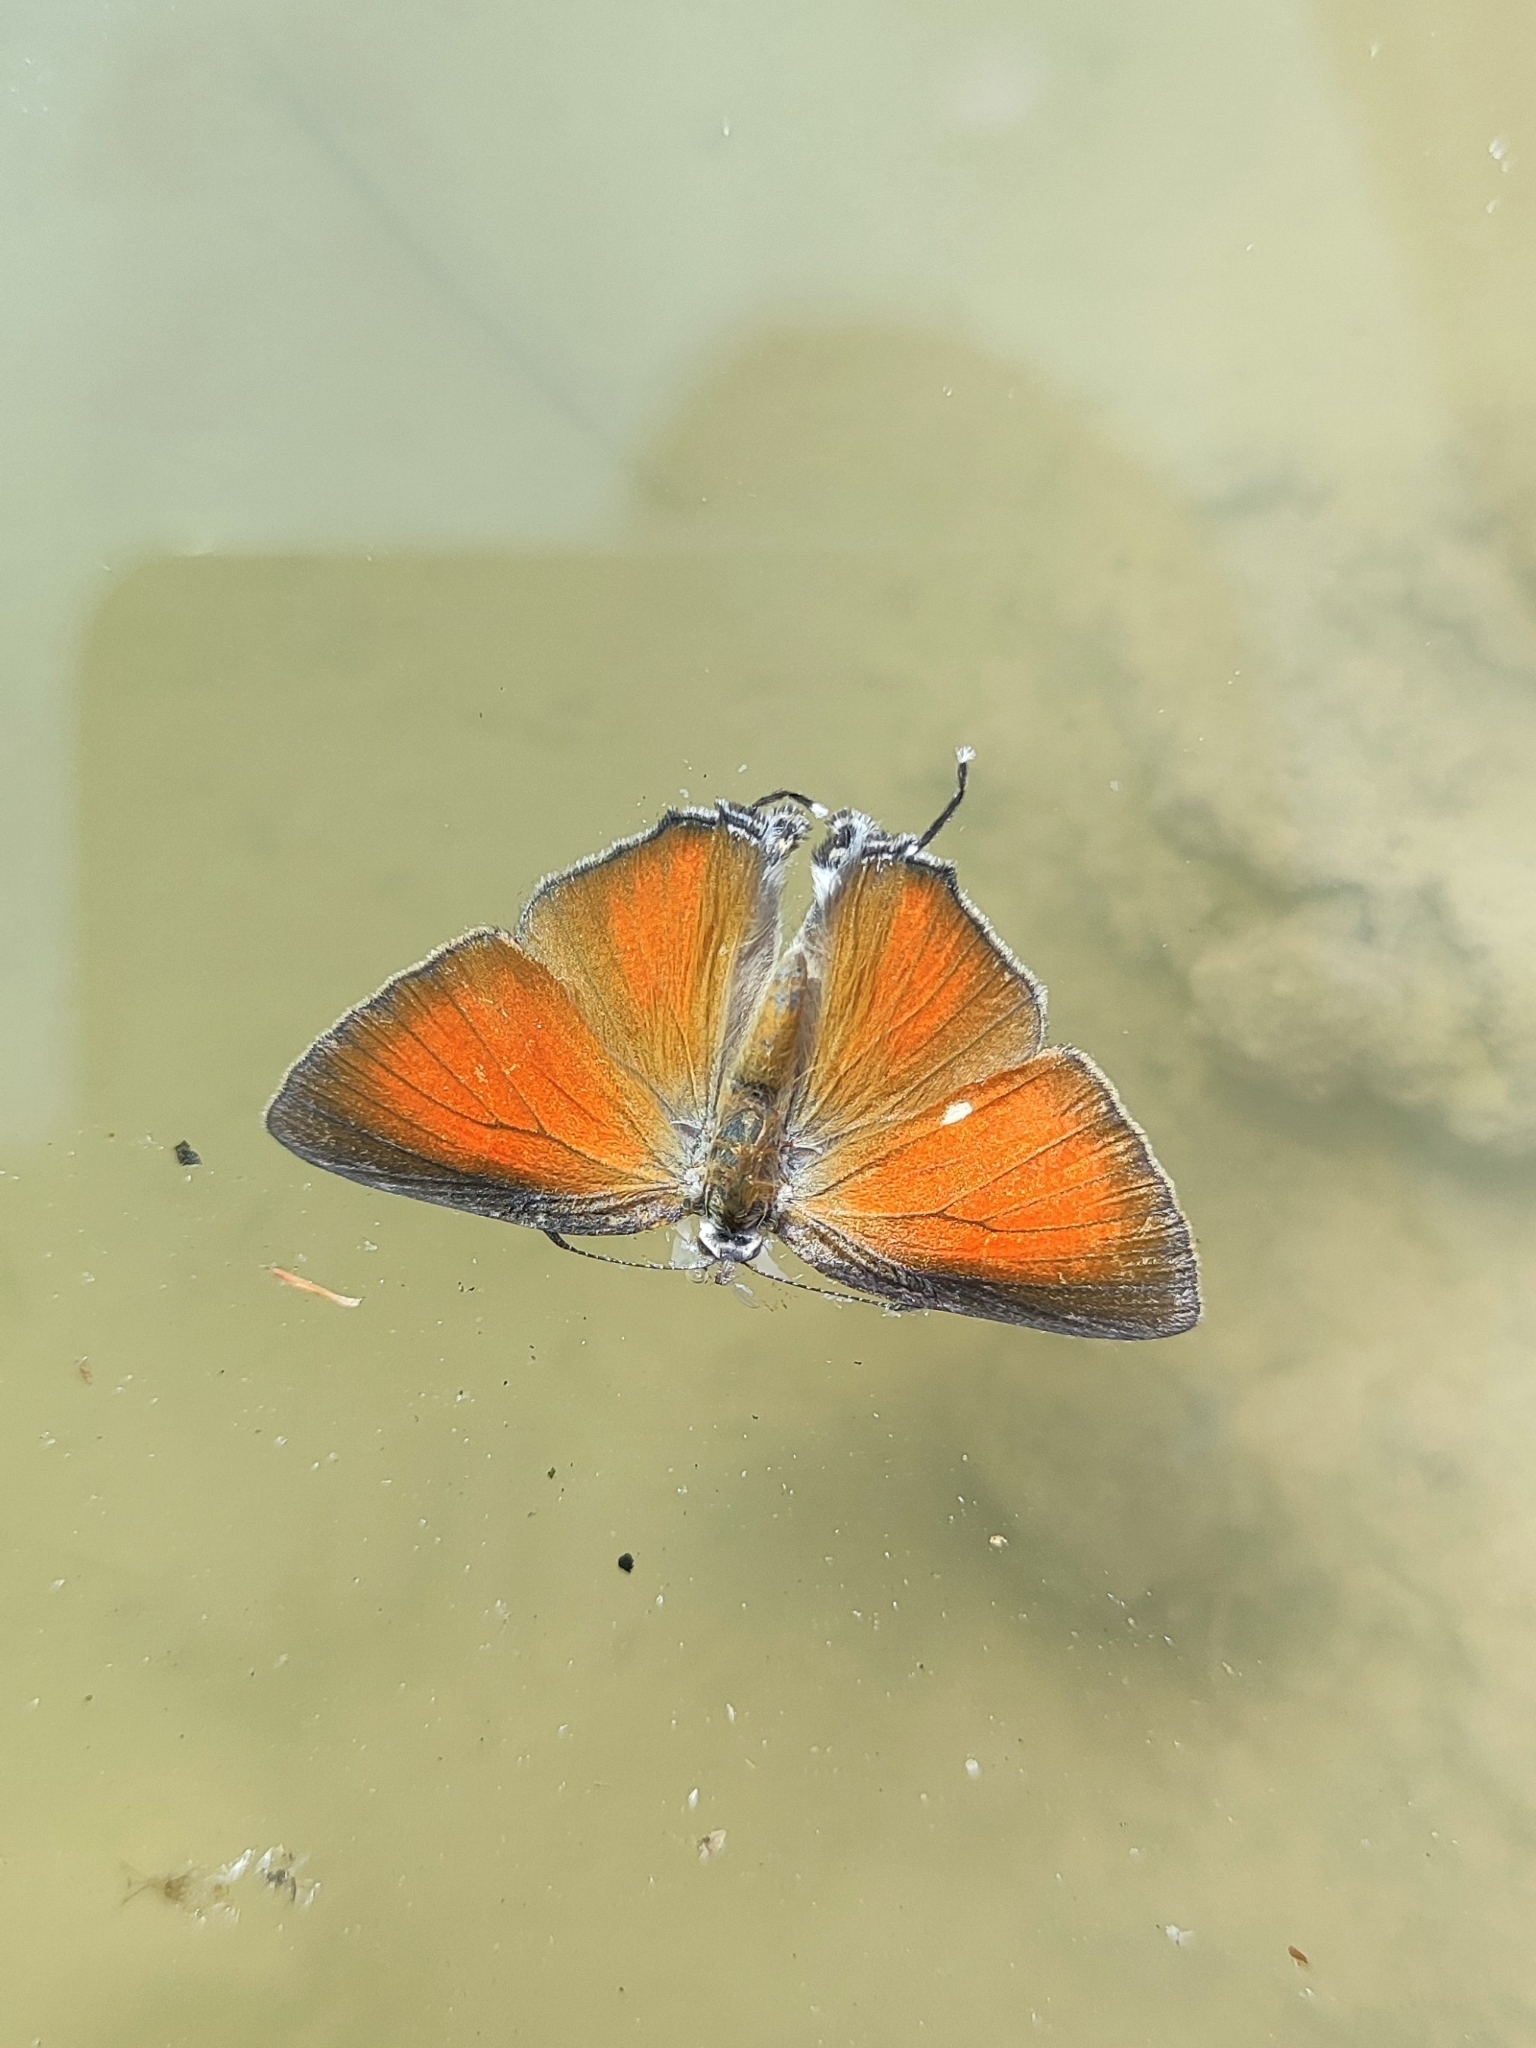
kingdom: Animalia
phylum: Arthropoda
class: Insecta
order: Lepidoptera
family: Lycaenidae
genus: Rapala
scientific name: Rapala iarbus
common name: Common red flash
